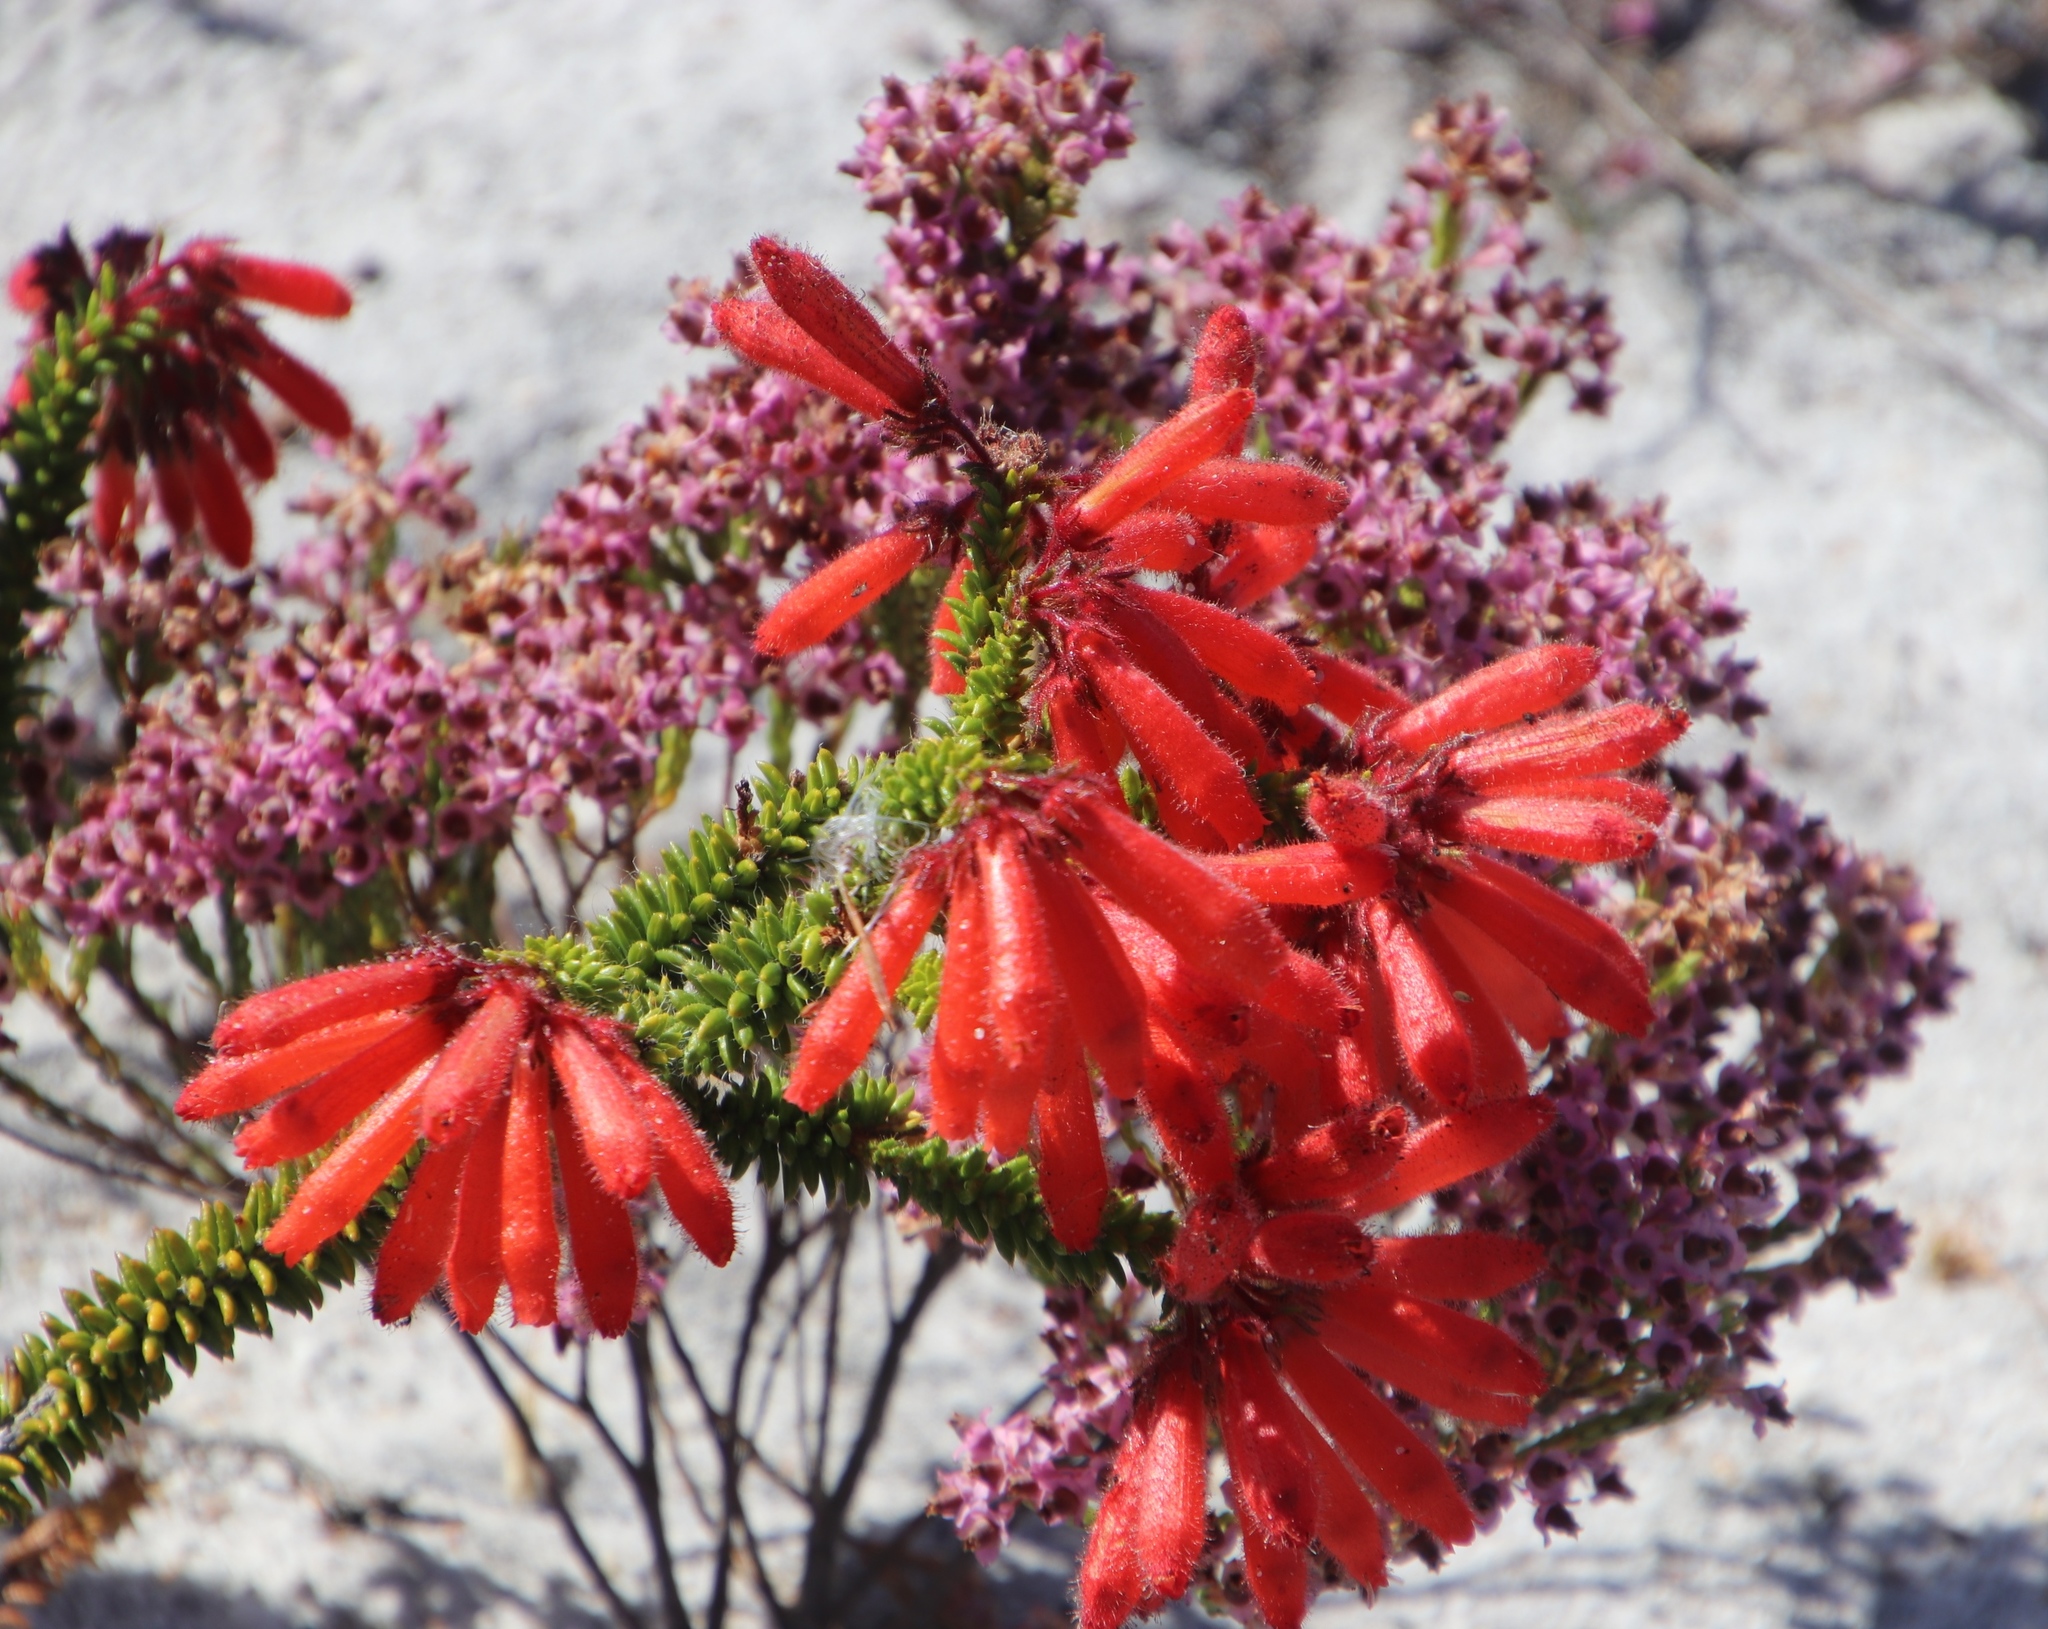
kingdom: Plantae
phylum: Tracheophyta
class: Magnoliopsida
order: Ericales
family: Ericaceae
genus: Erica
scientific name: Erica cerinthoides
